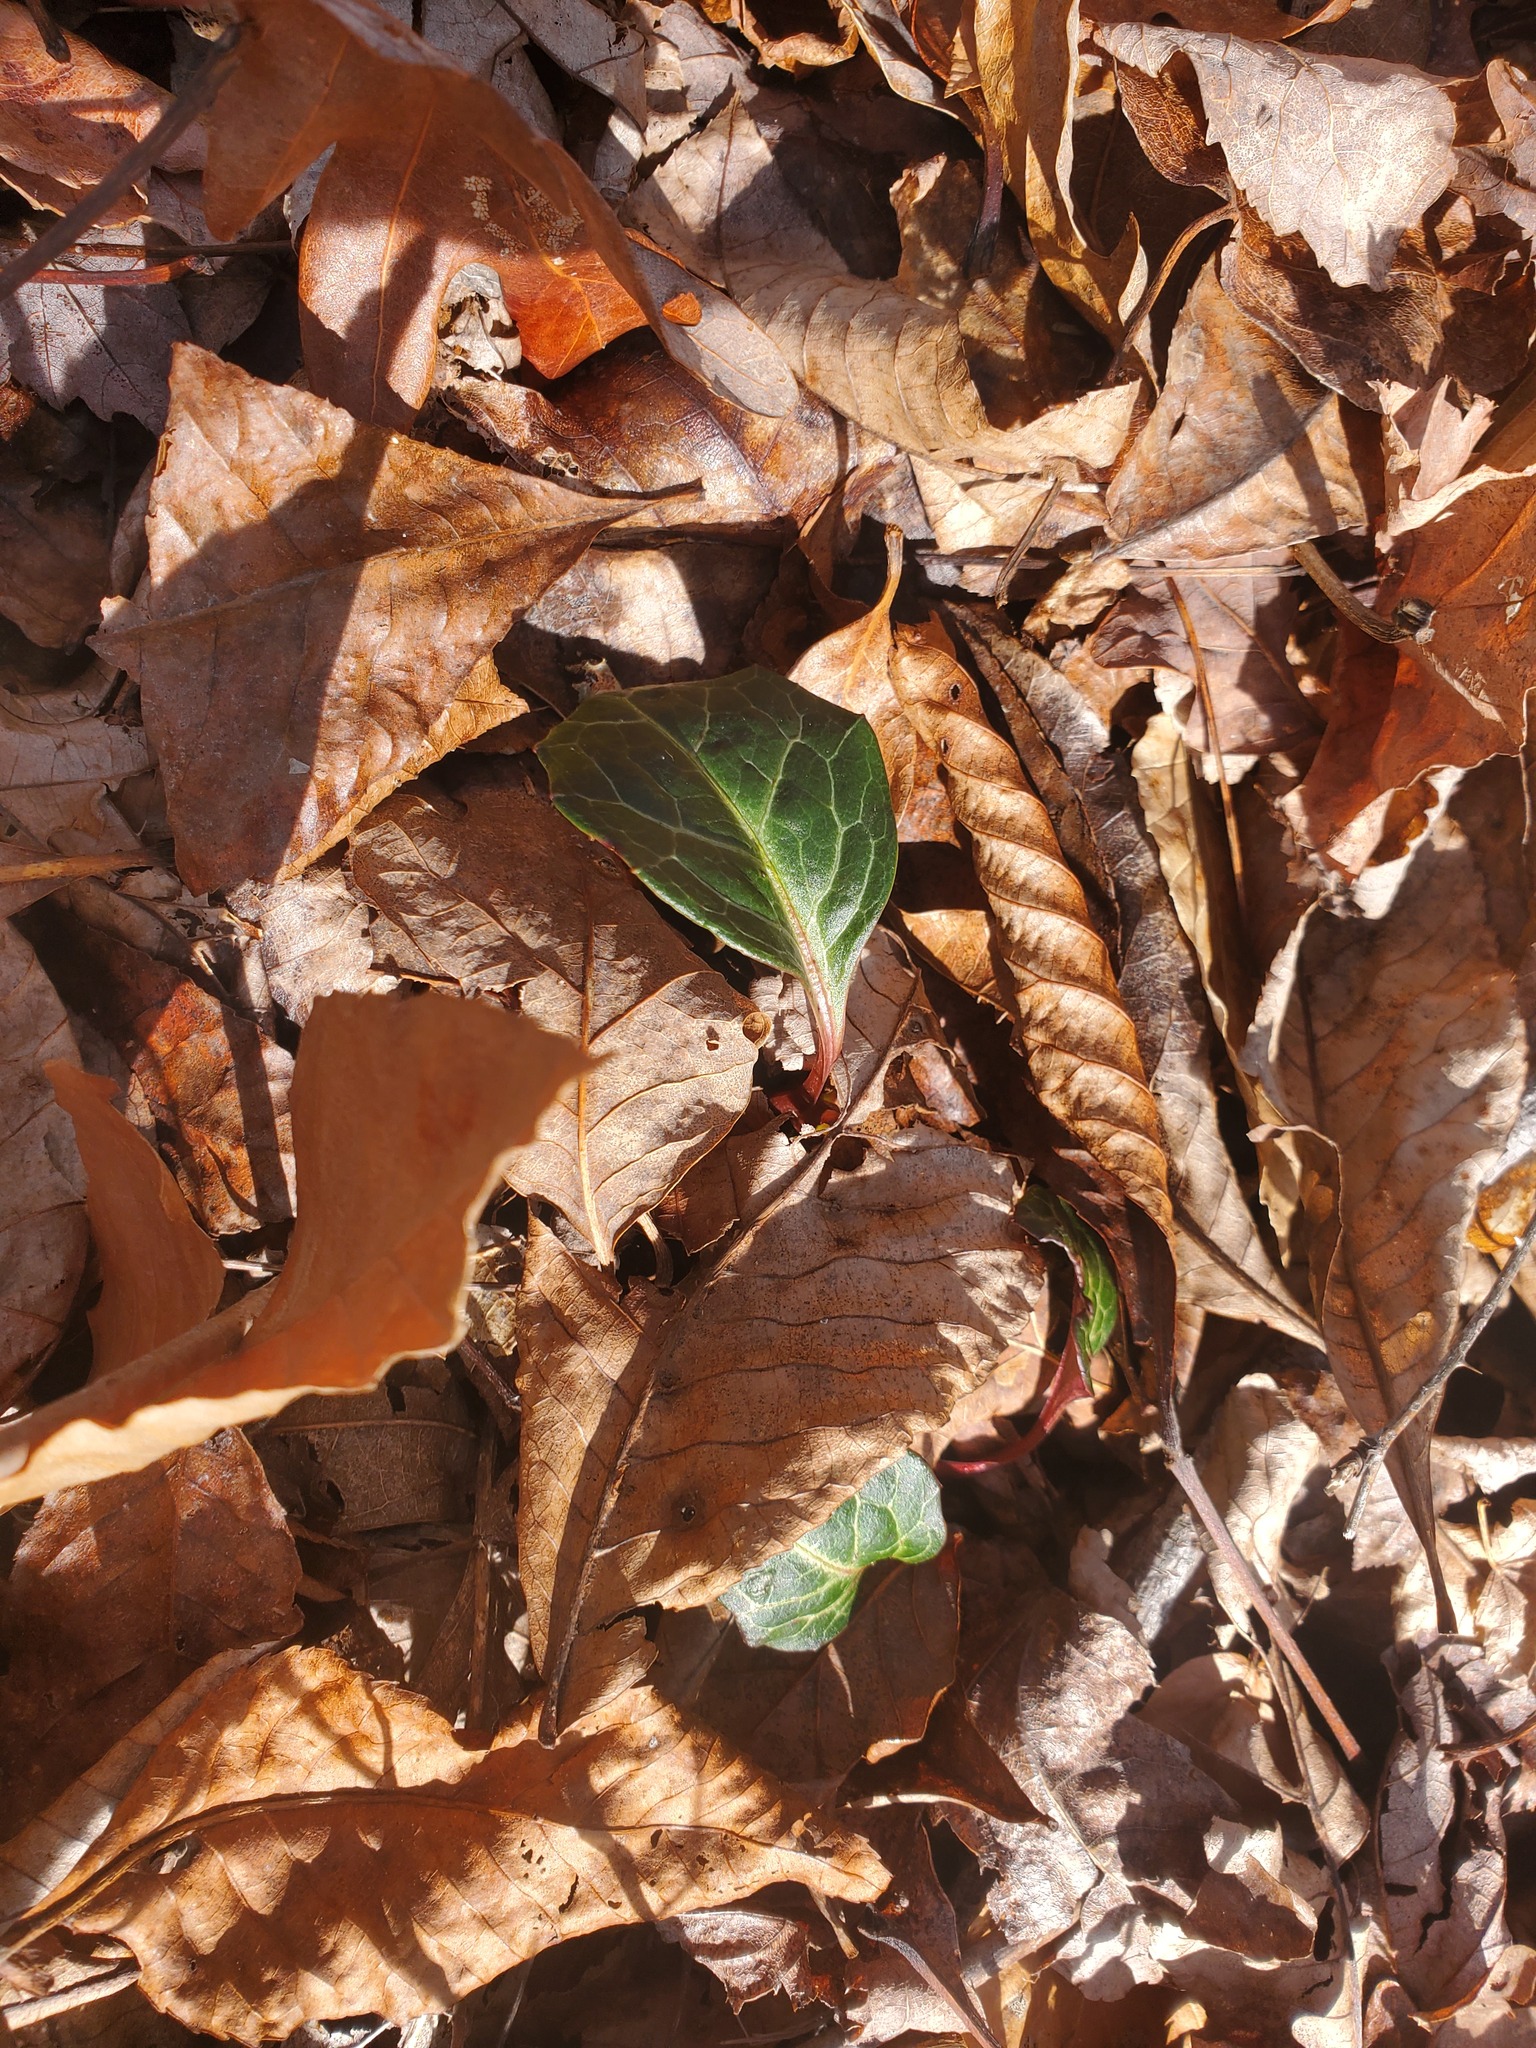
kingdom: Plantae
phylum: Tracheophyta
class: Magnoliopsida
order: Ericales
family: Ericaceae
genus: Pyrola
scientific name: Pyrola americana
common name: American wintergreen
